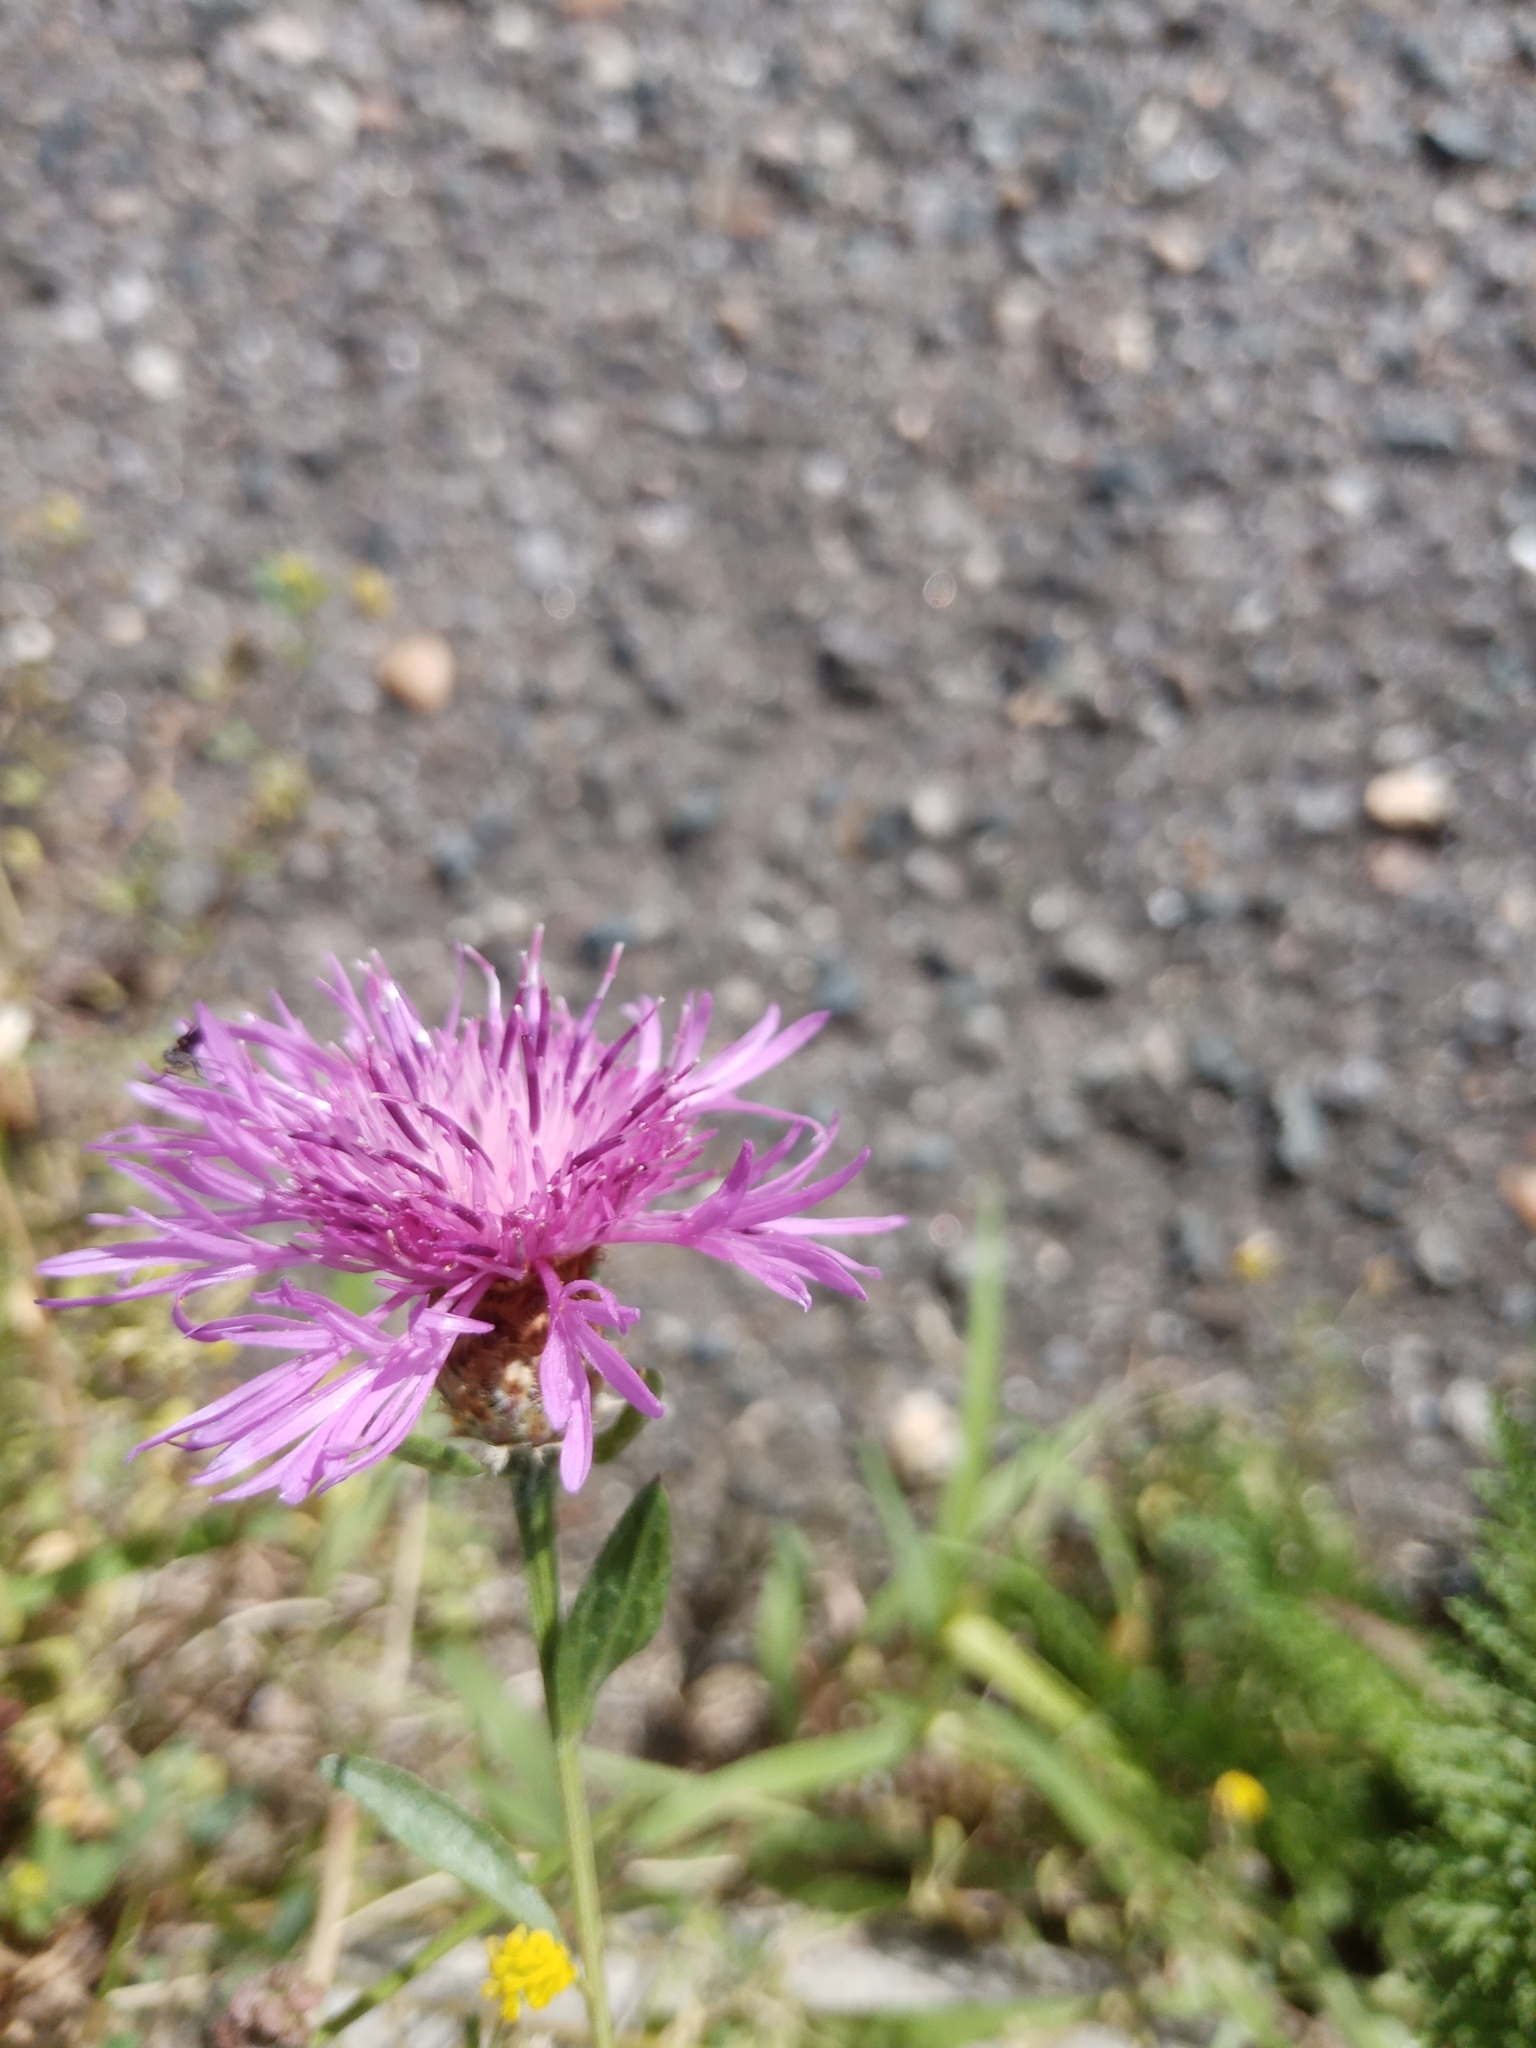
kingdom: Plantae
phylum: Tracheophyta
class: Magnoliopsida
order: Asterales
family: Asteraceae
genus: Centaurea
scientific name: Centaurea jacea
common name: Brown knapweed
